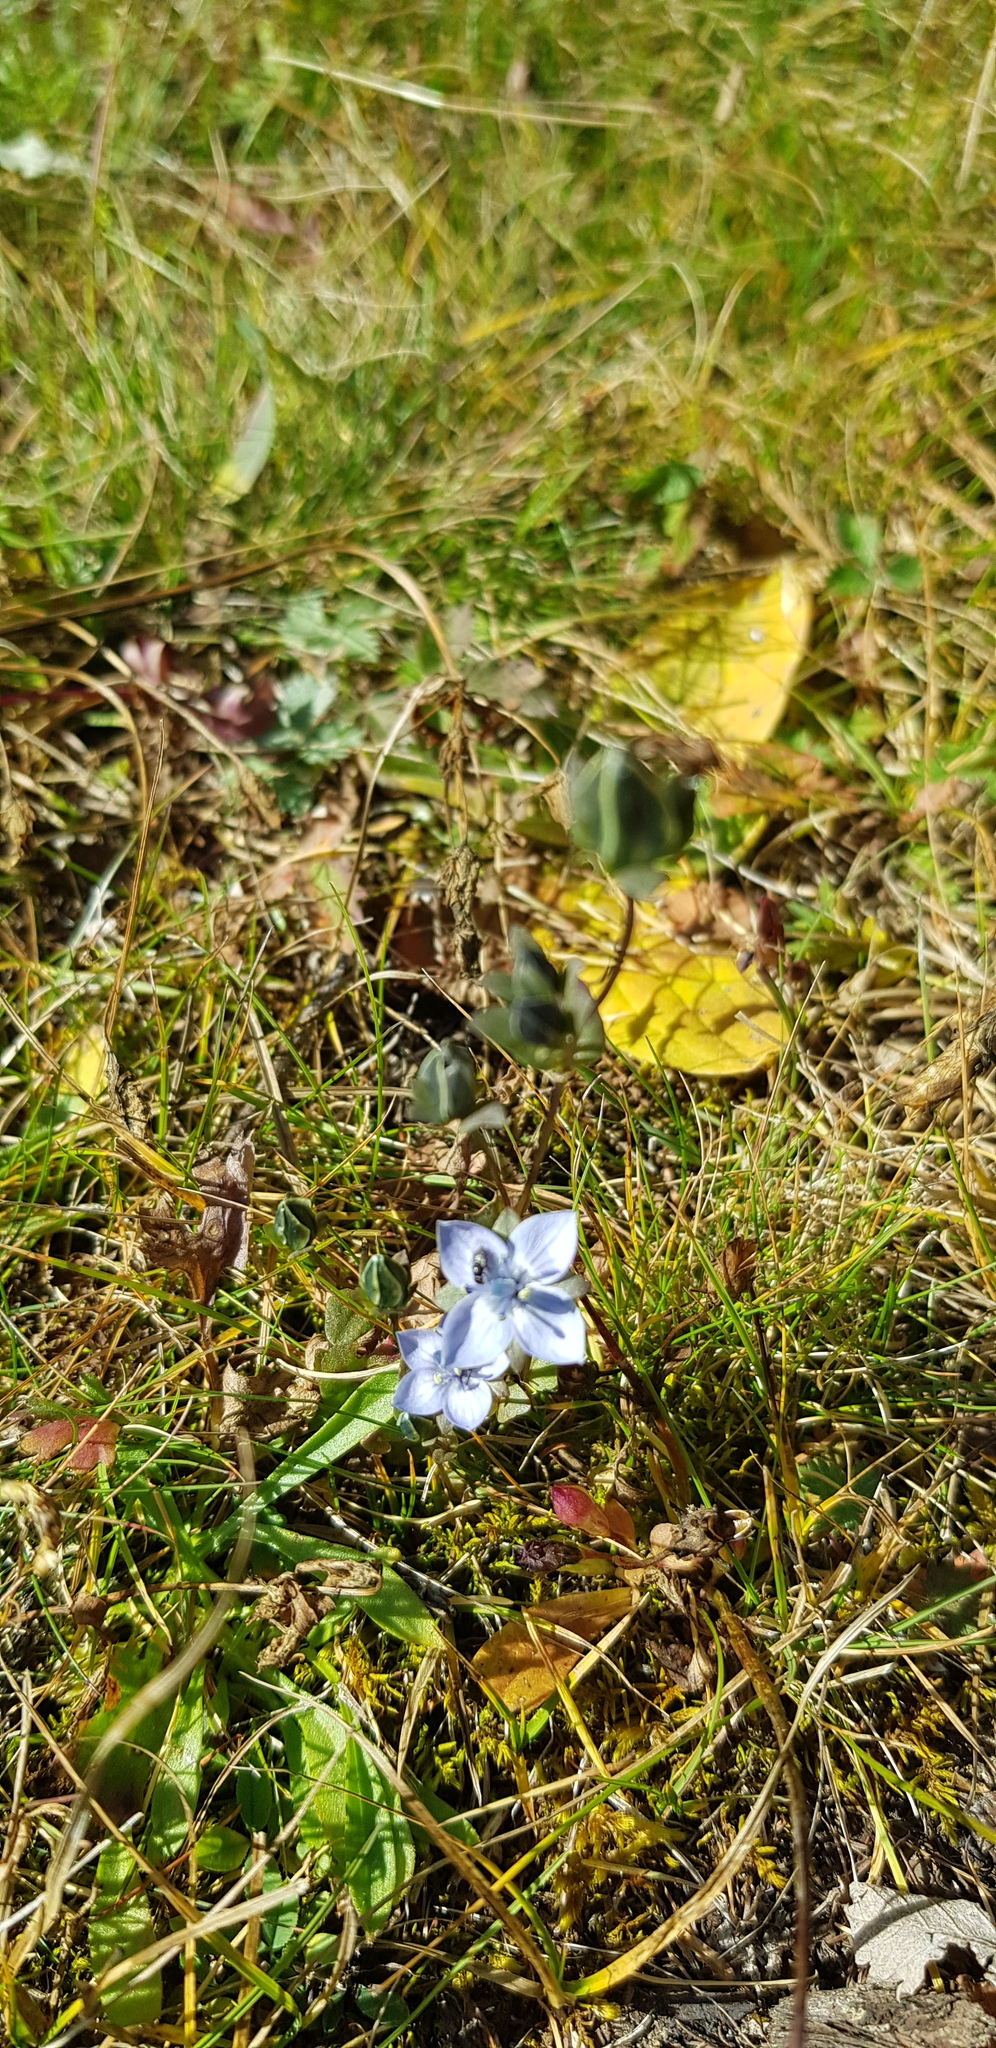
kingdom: Plantae
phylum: Tracheophyta
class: Magnoliopsida
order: Gentianales
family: Gentianaceae
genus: Lomatogonium
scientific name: Lomatogonium carinthiacum
